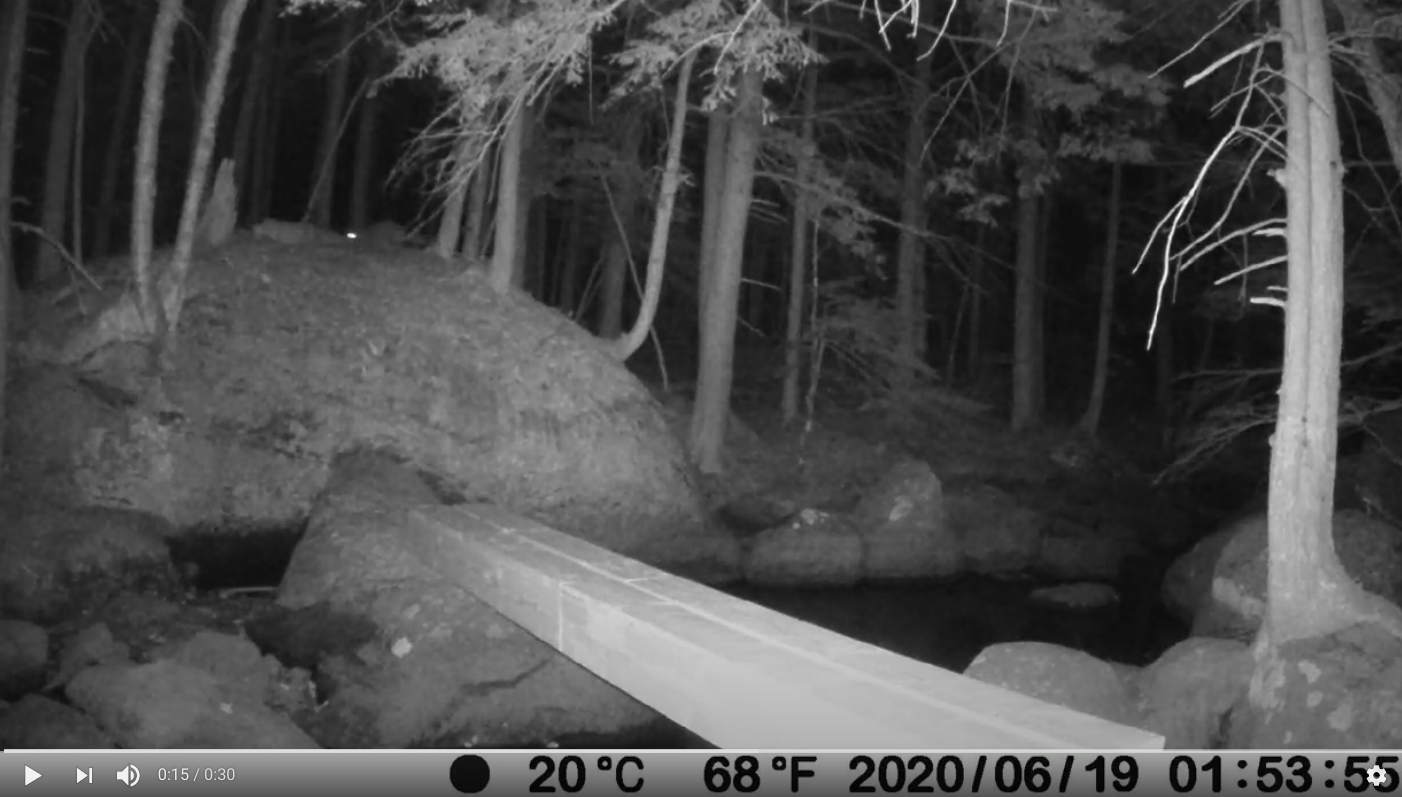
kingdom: Animalia
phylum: Chordata
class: Mammalia
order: Carnivora
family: Procyonidae
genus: Procyon
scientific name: Procyon lotor
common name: Raccoon
